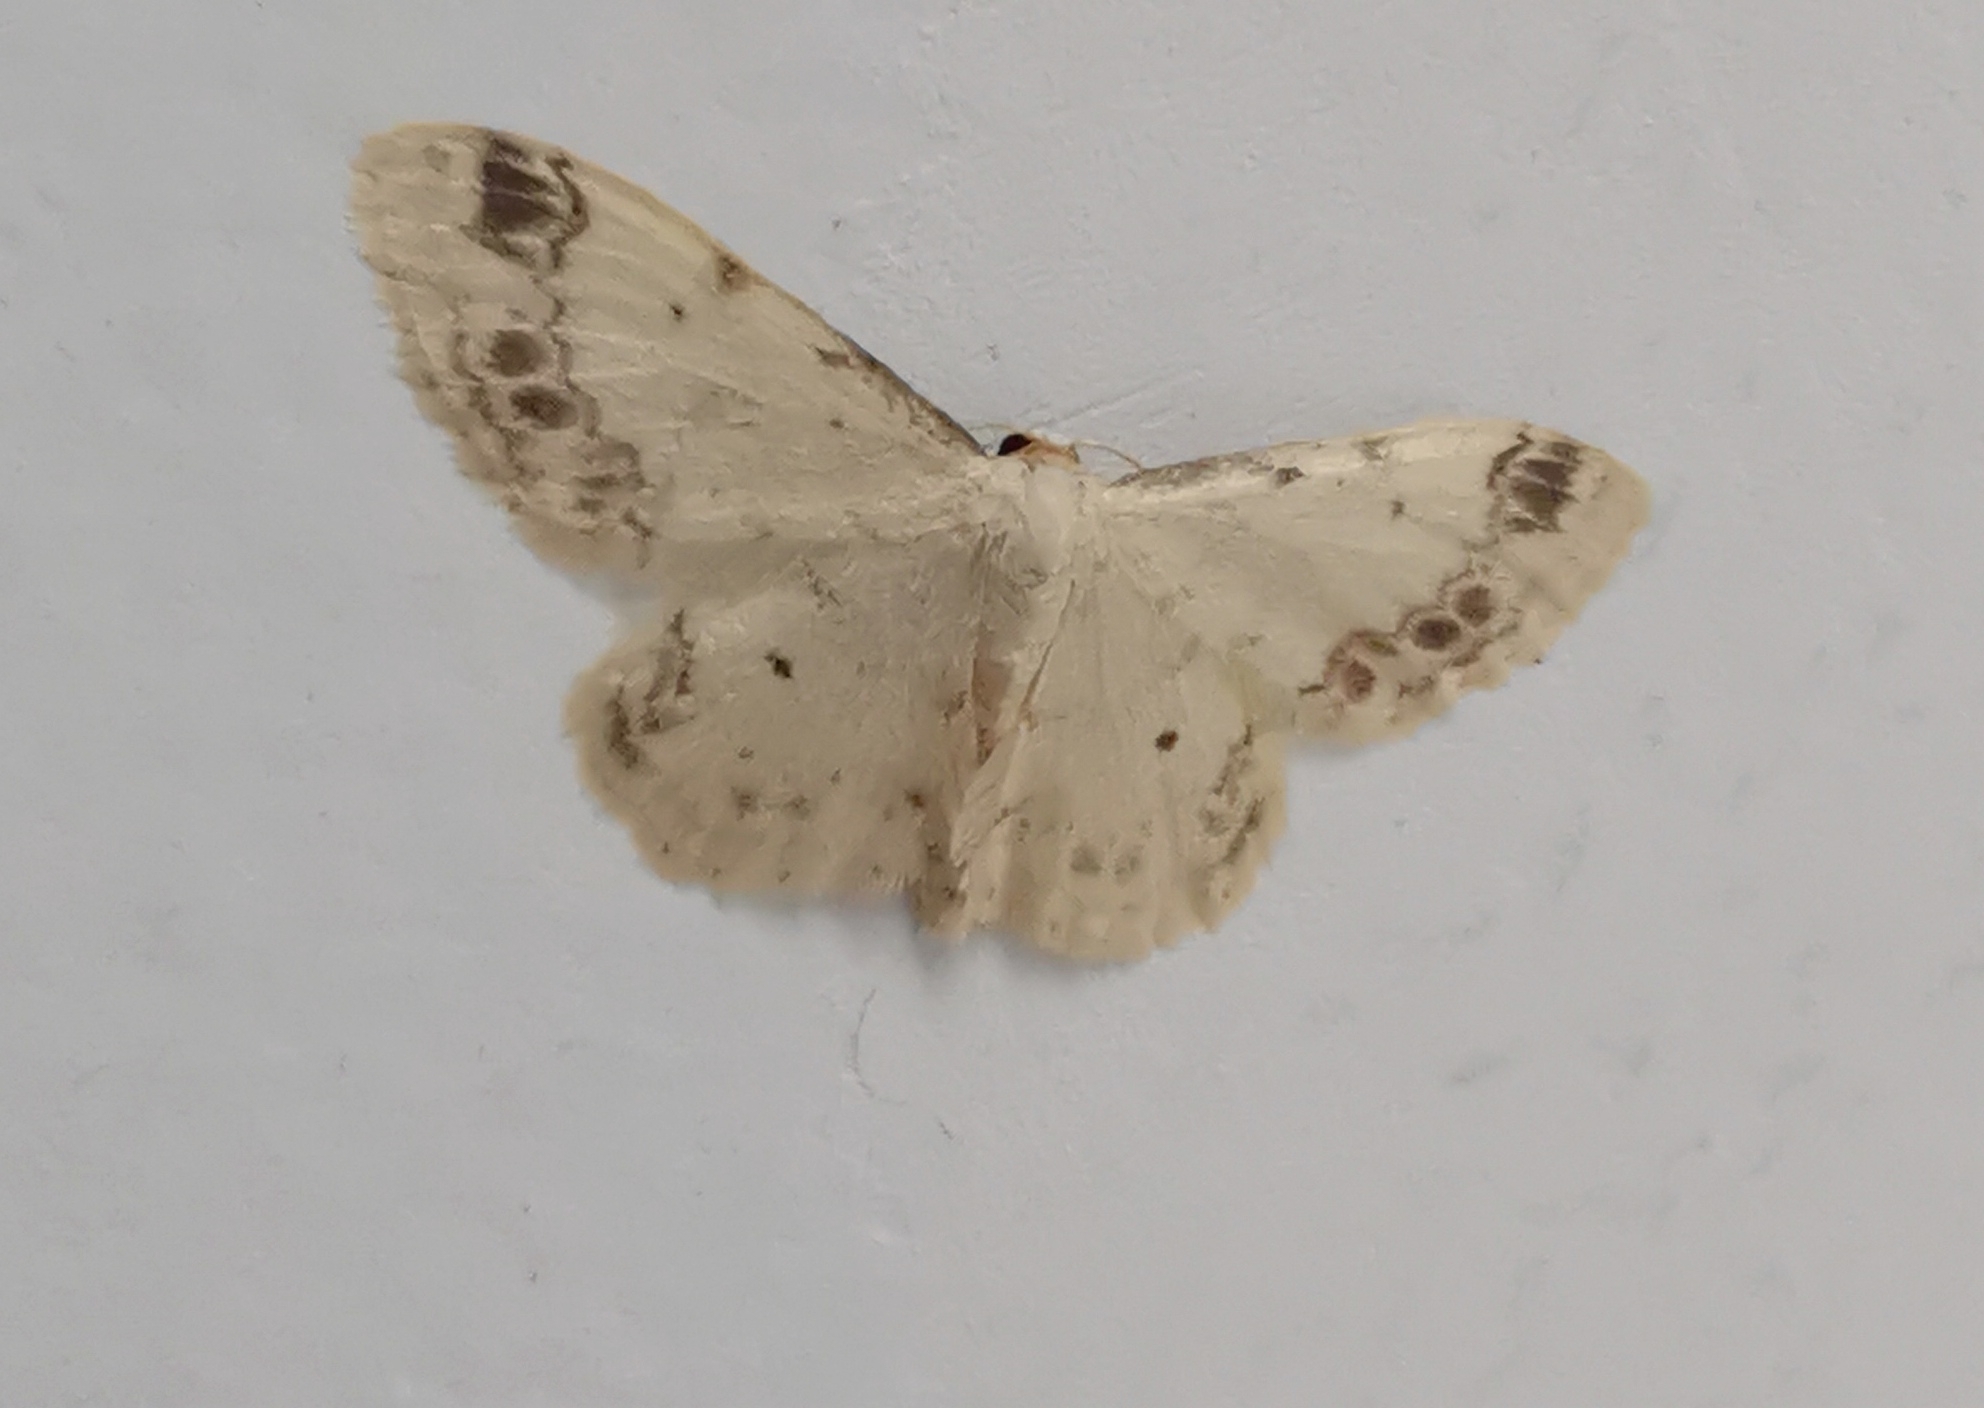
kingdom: Animalia
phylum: Arthropoda
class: Insecta
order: Lepidoptera
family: Geometridae
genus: Idaea
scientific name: Idaea trigeminata
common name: Treble brown spot
